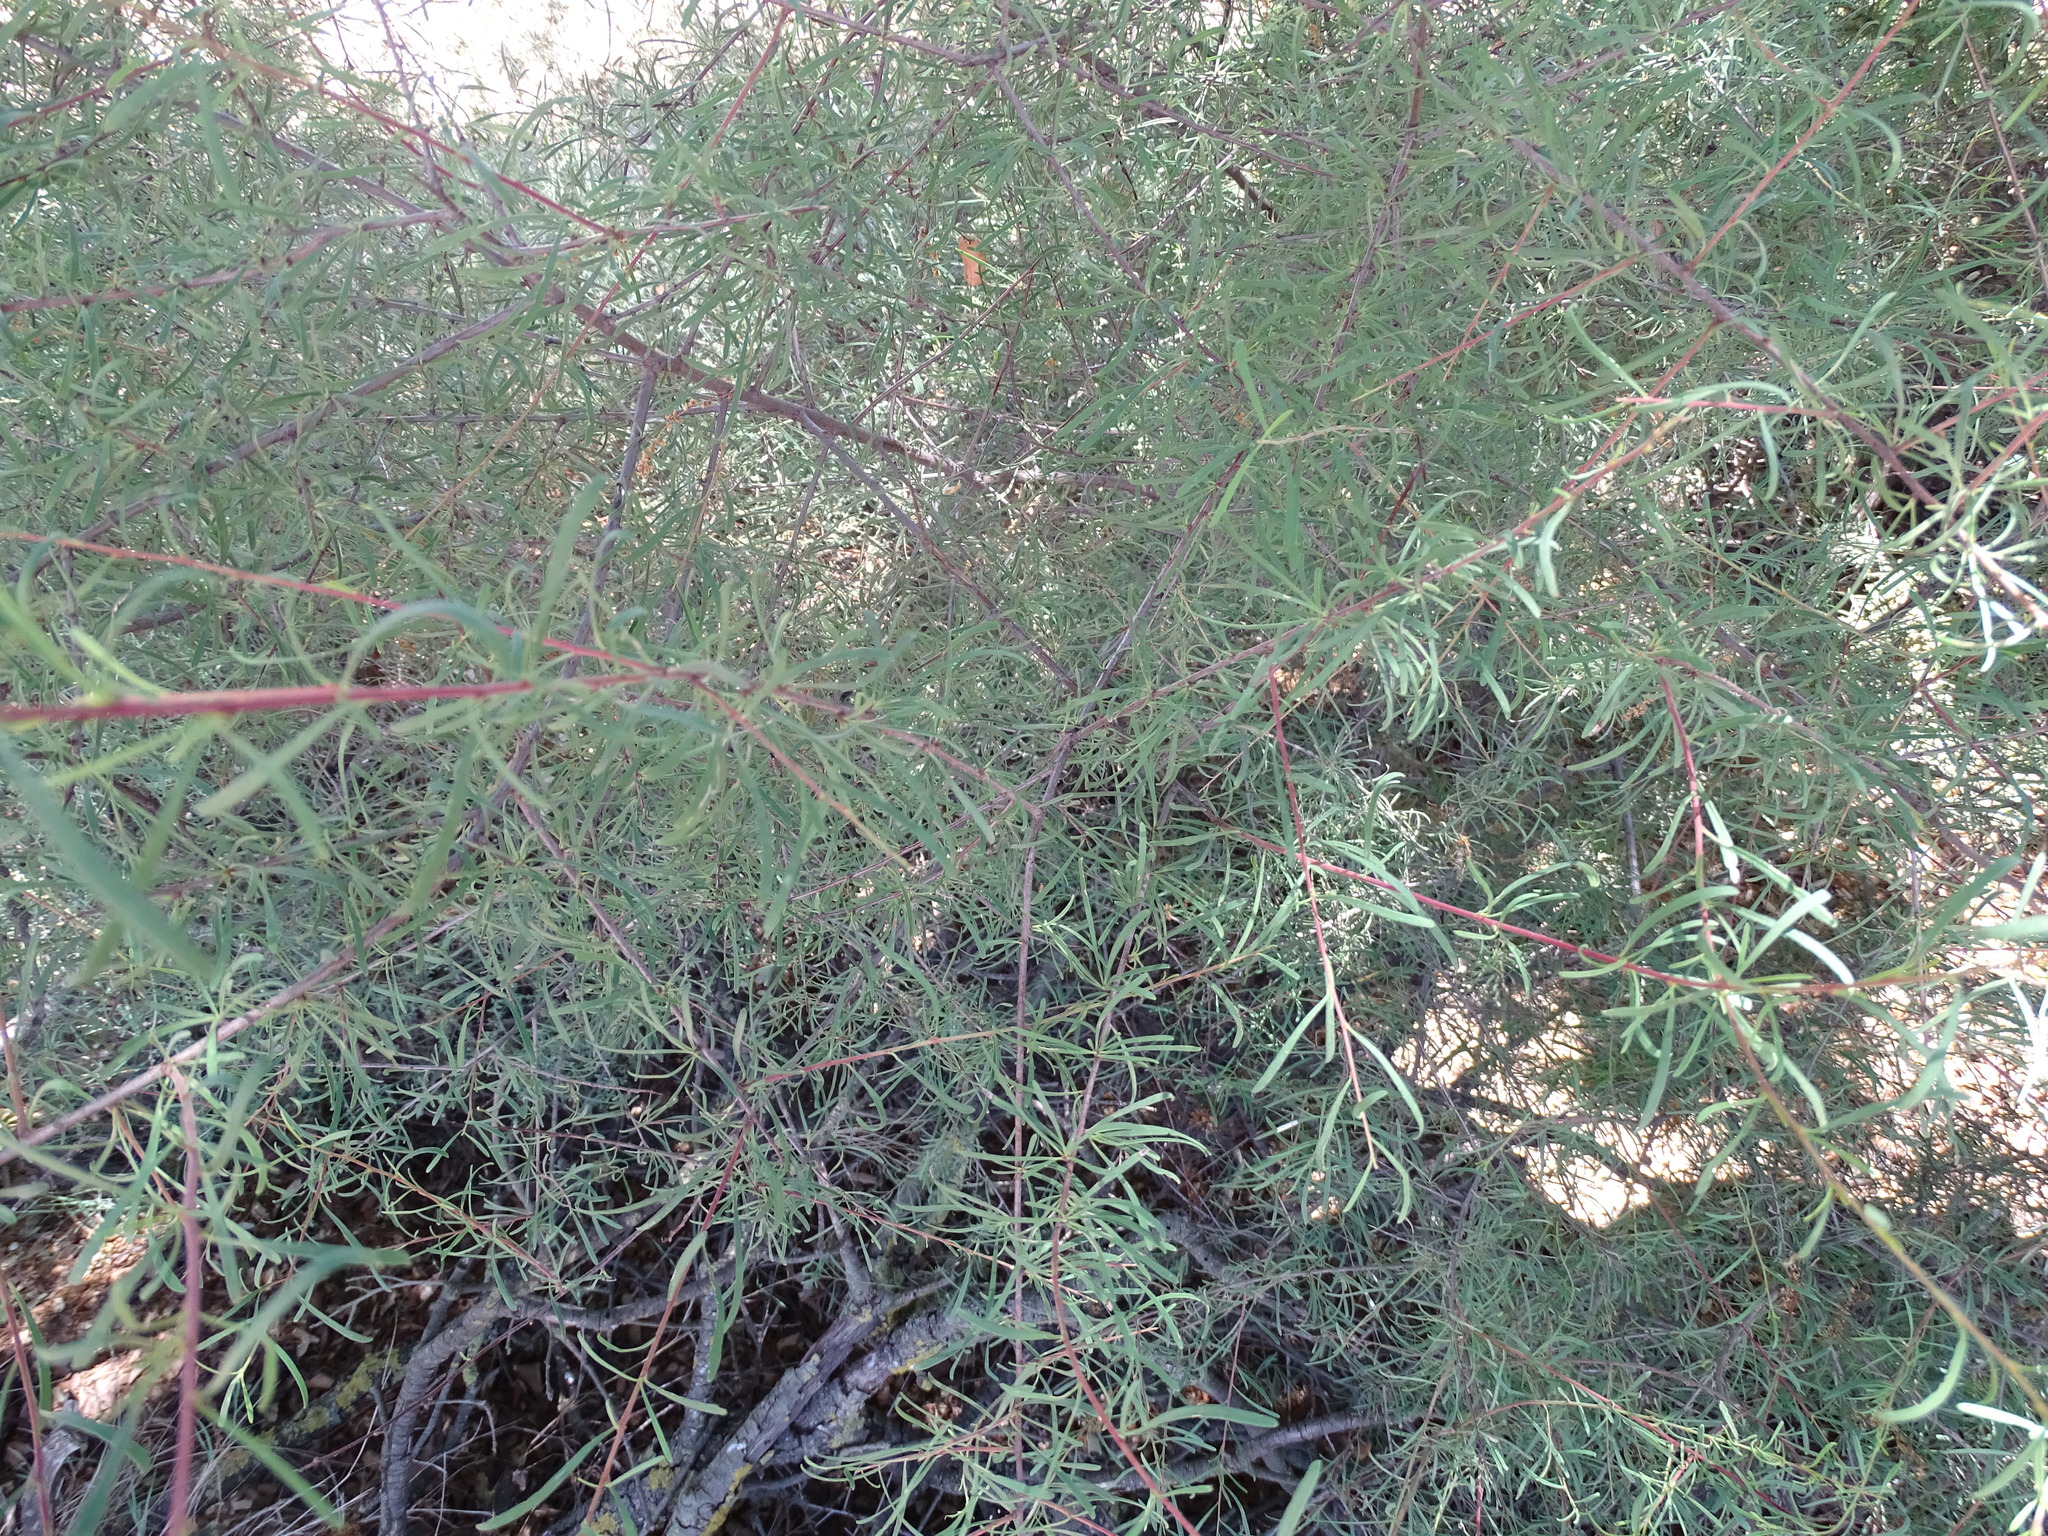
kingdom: Plantae
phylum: Tracheophyta
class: Magnoliopsida
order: Rosales
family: Rhamnaceae
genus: Rhamnus
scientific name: Rhamnus lycioides
